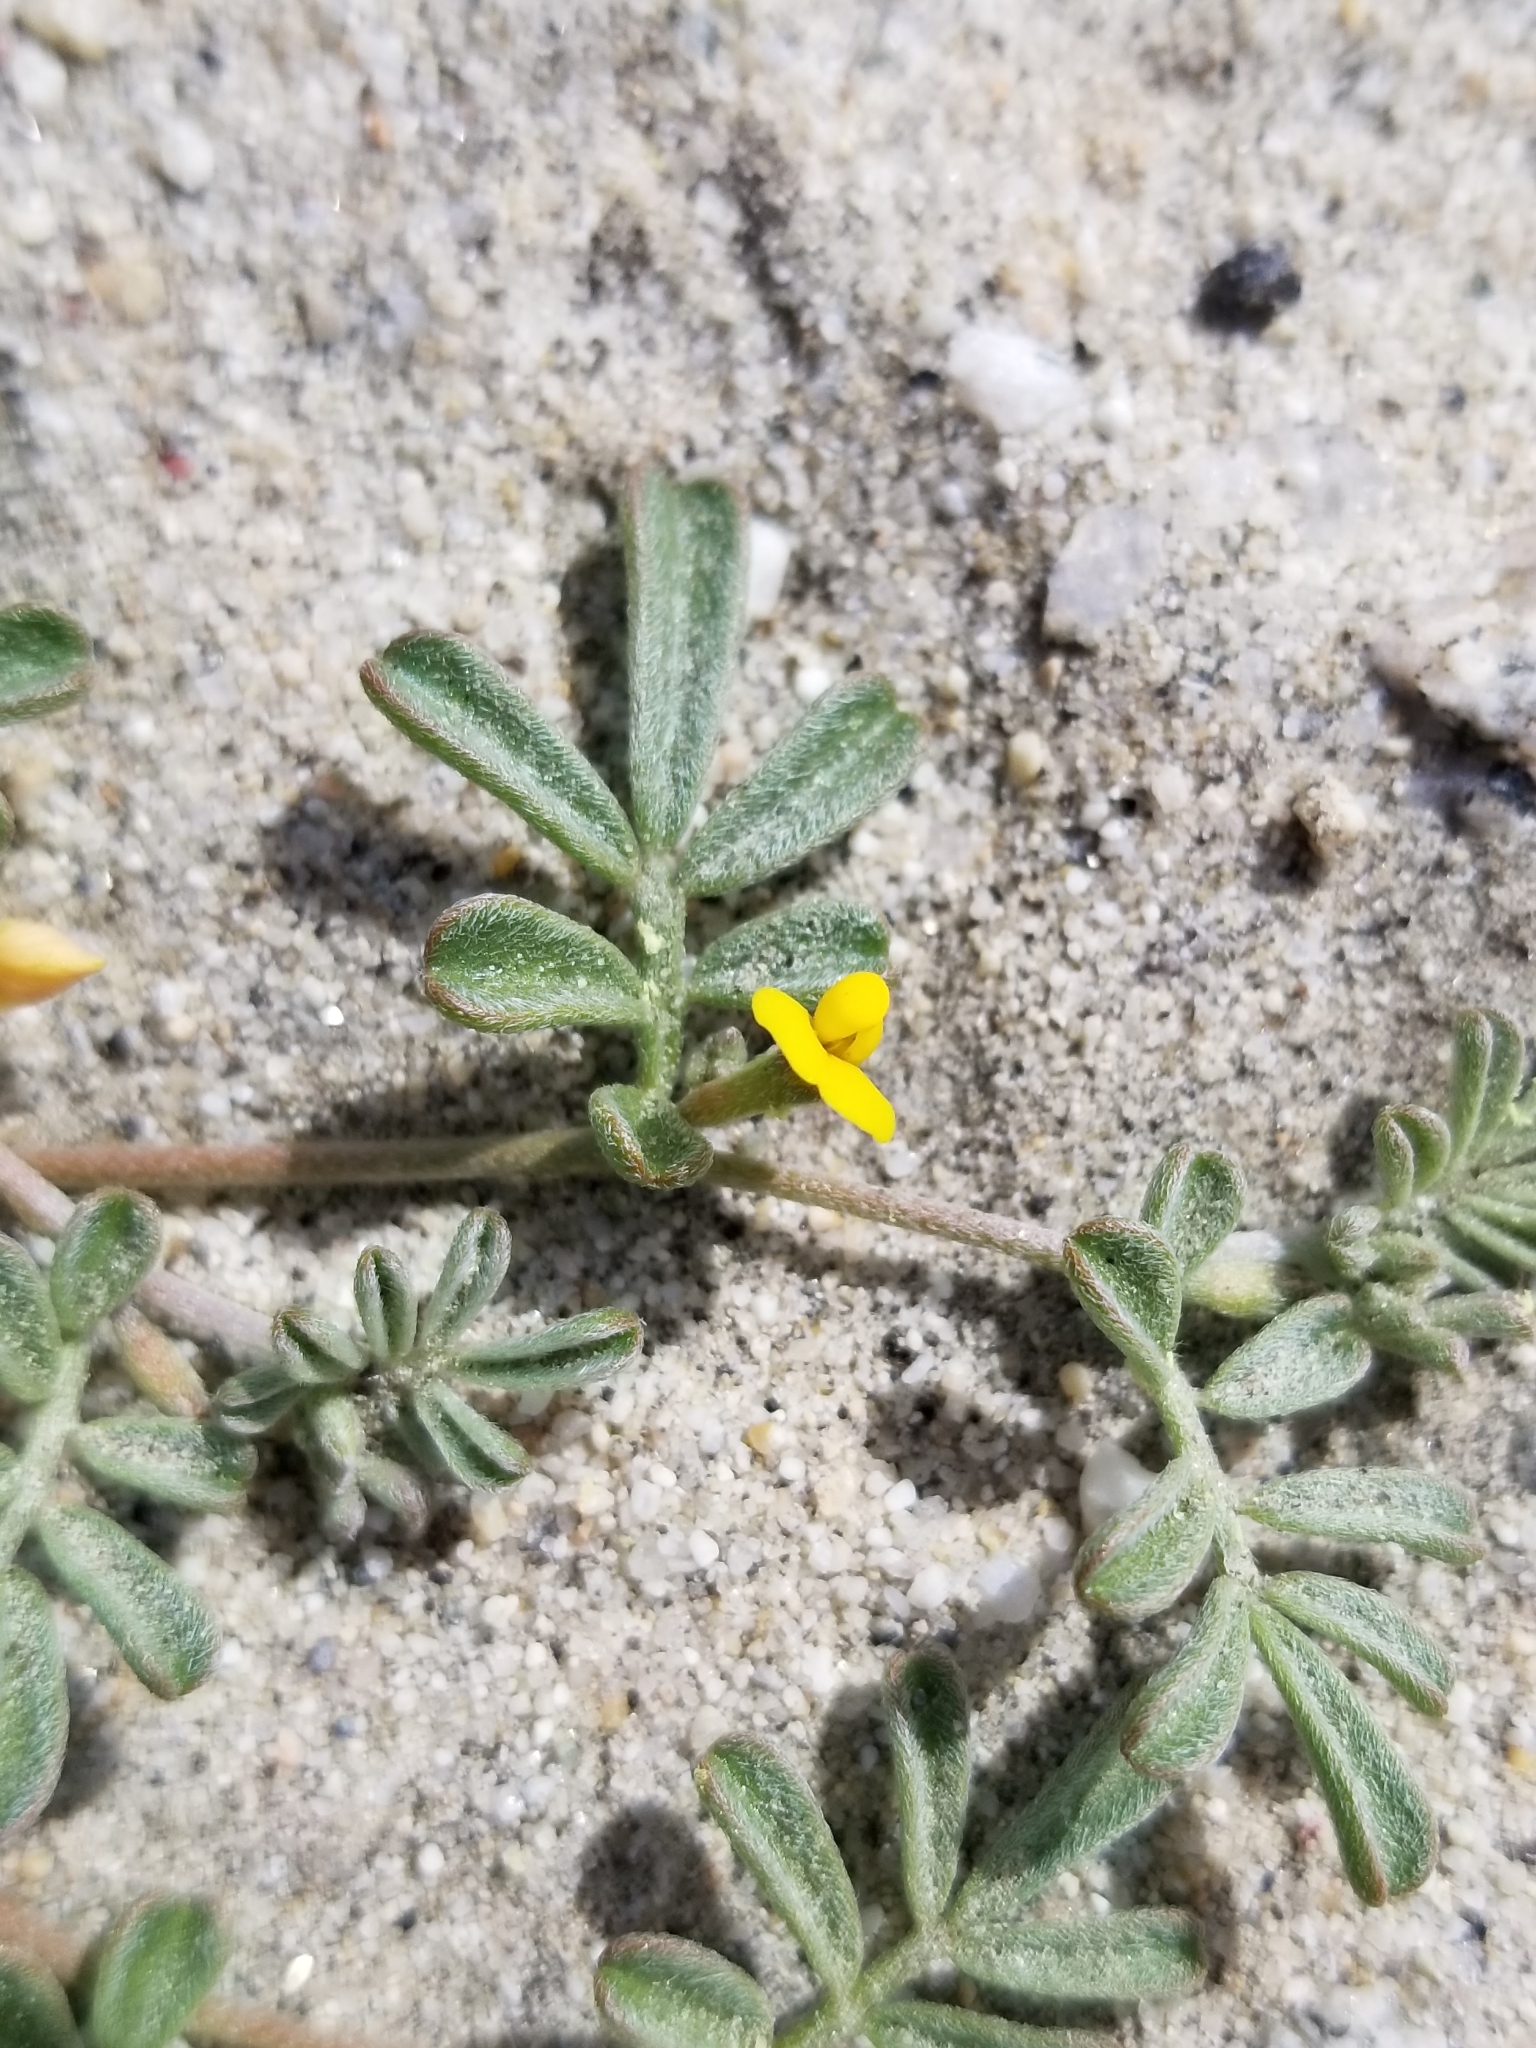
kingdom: Plantae
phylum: Tracheophyta
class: Magnoliopsida
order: Fabales
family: Fabaceae
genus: Acmispon
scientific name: Acmispon strigosus
